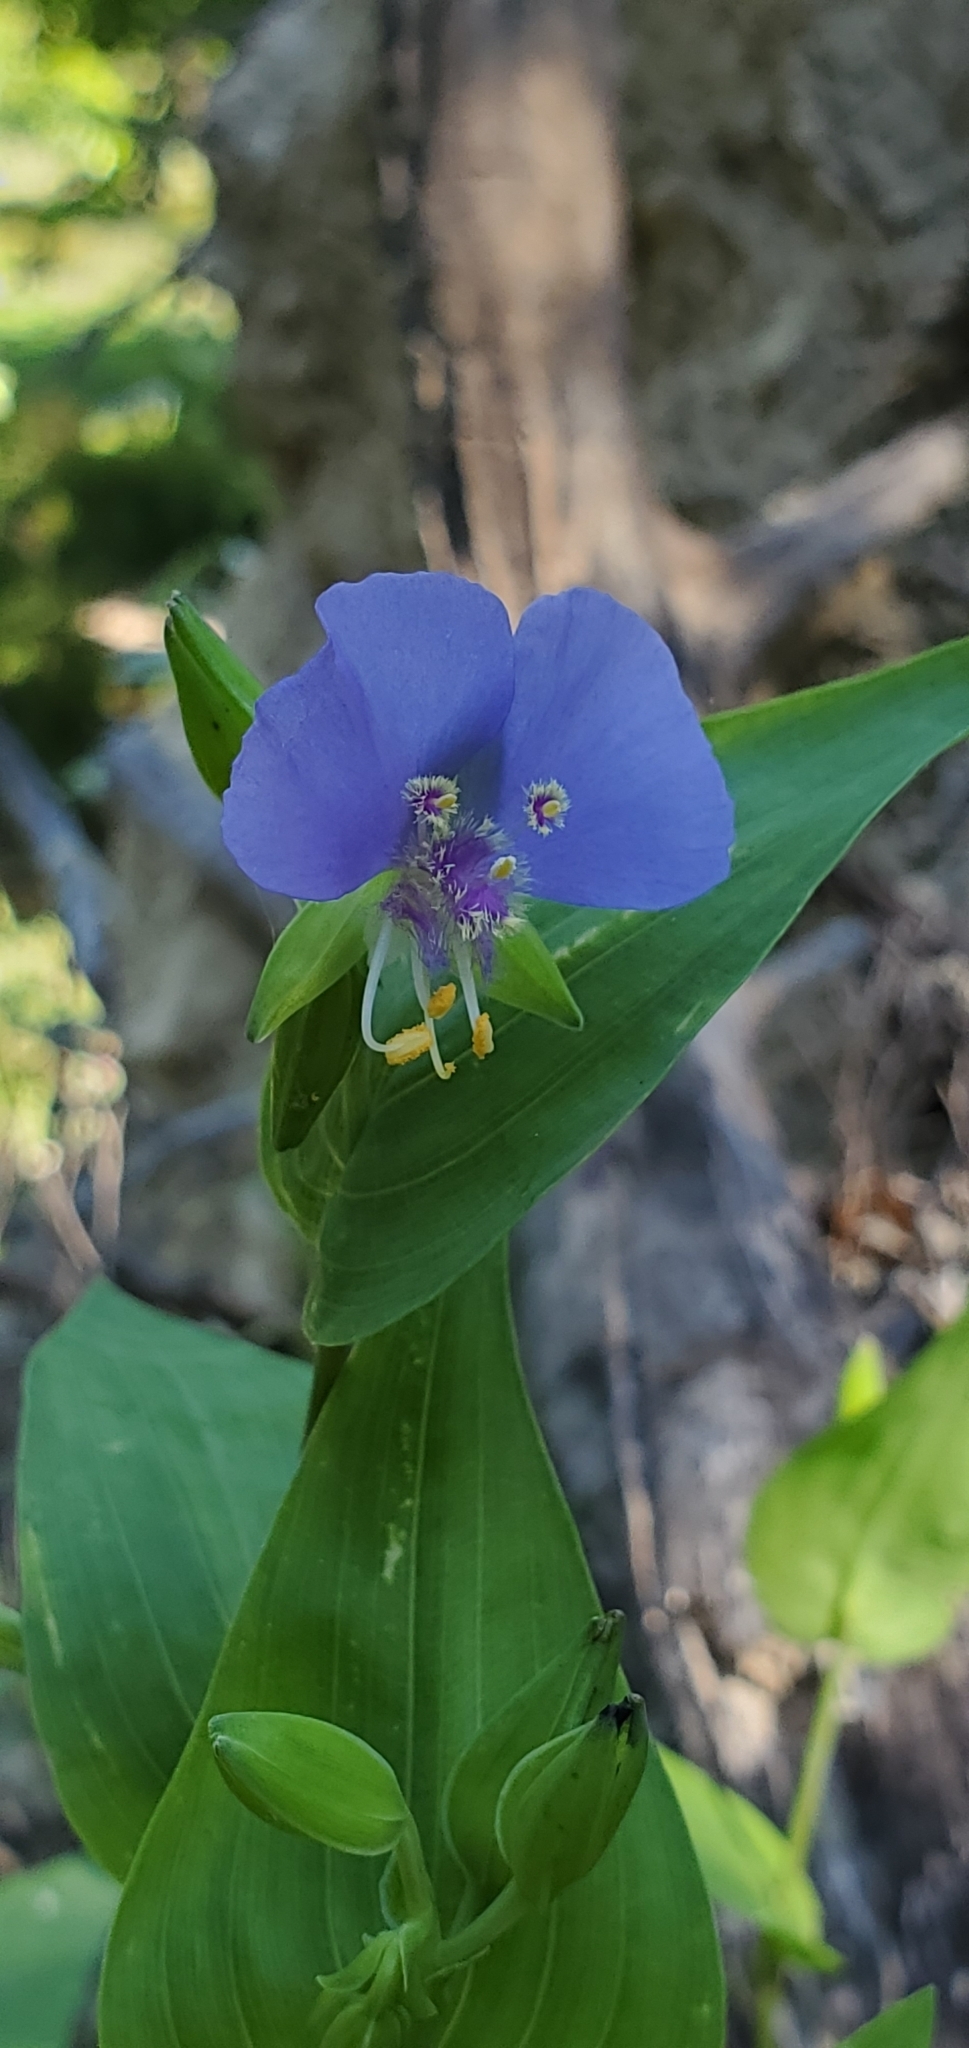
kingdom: Plantae
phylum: Tracheophyta
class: Liliopsida
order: Commelinales
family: Commelinaceae
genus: Tinantia
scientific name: Tinantia anomala
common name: False dayflower
